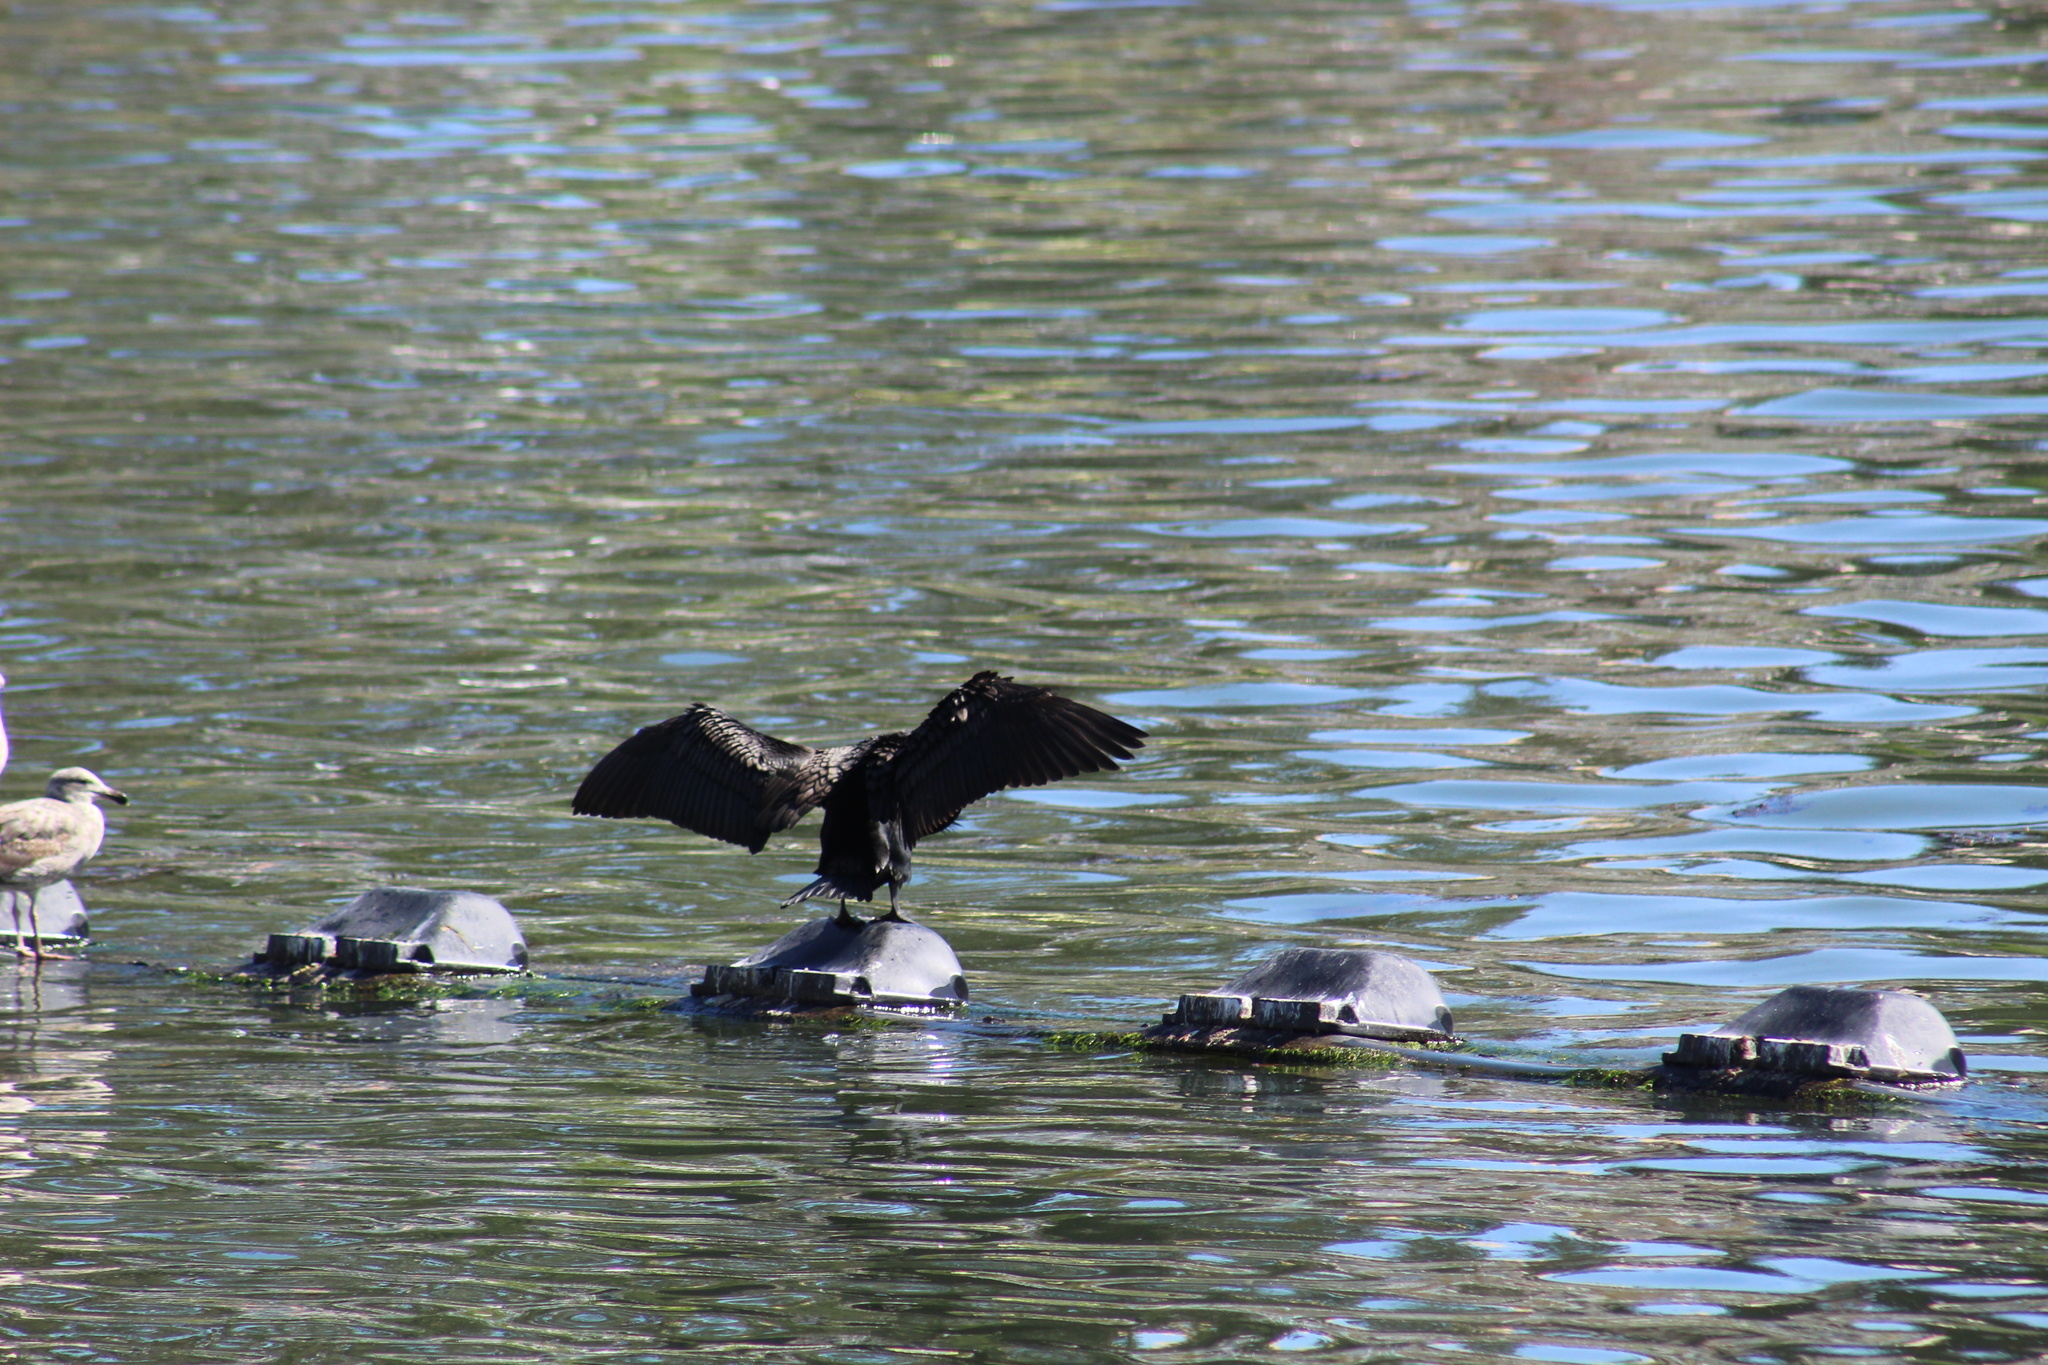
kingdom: Animalia
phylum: Chordata
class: Aves
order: Suliformes
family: Phalacrocoracidae
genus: Phalacrocorax
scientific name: Phalacrocorax auritus
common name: Double-crested cormorant
